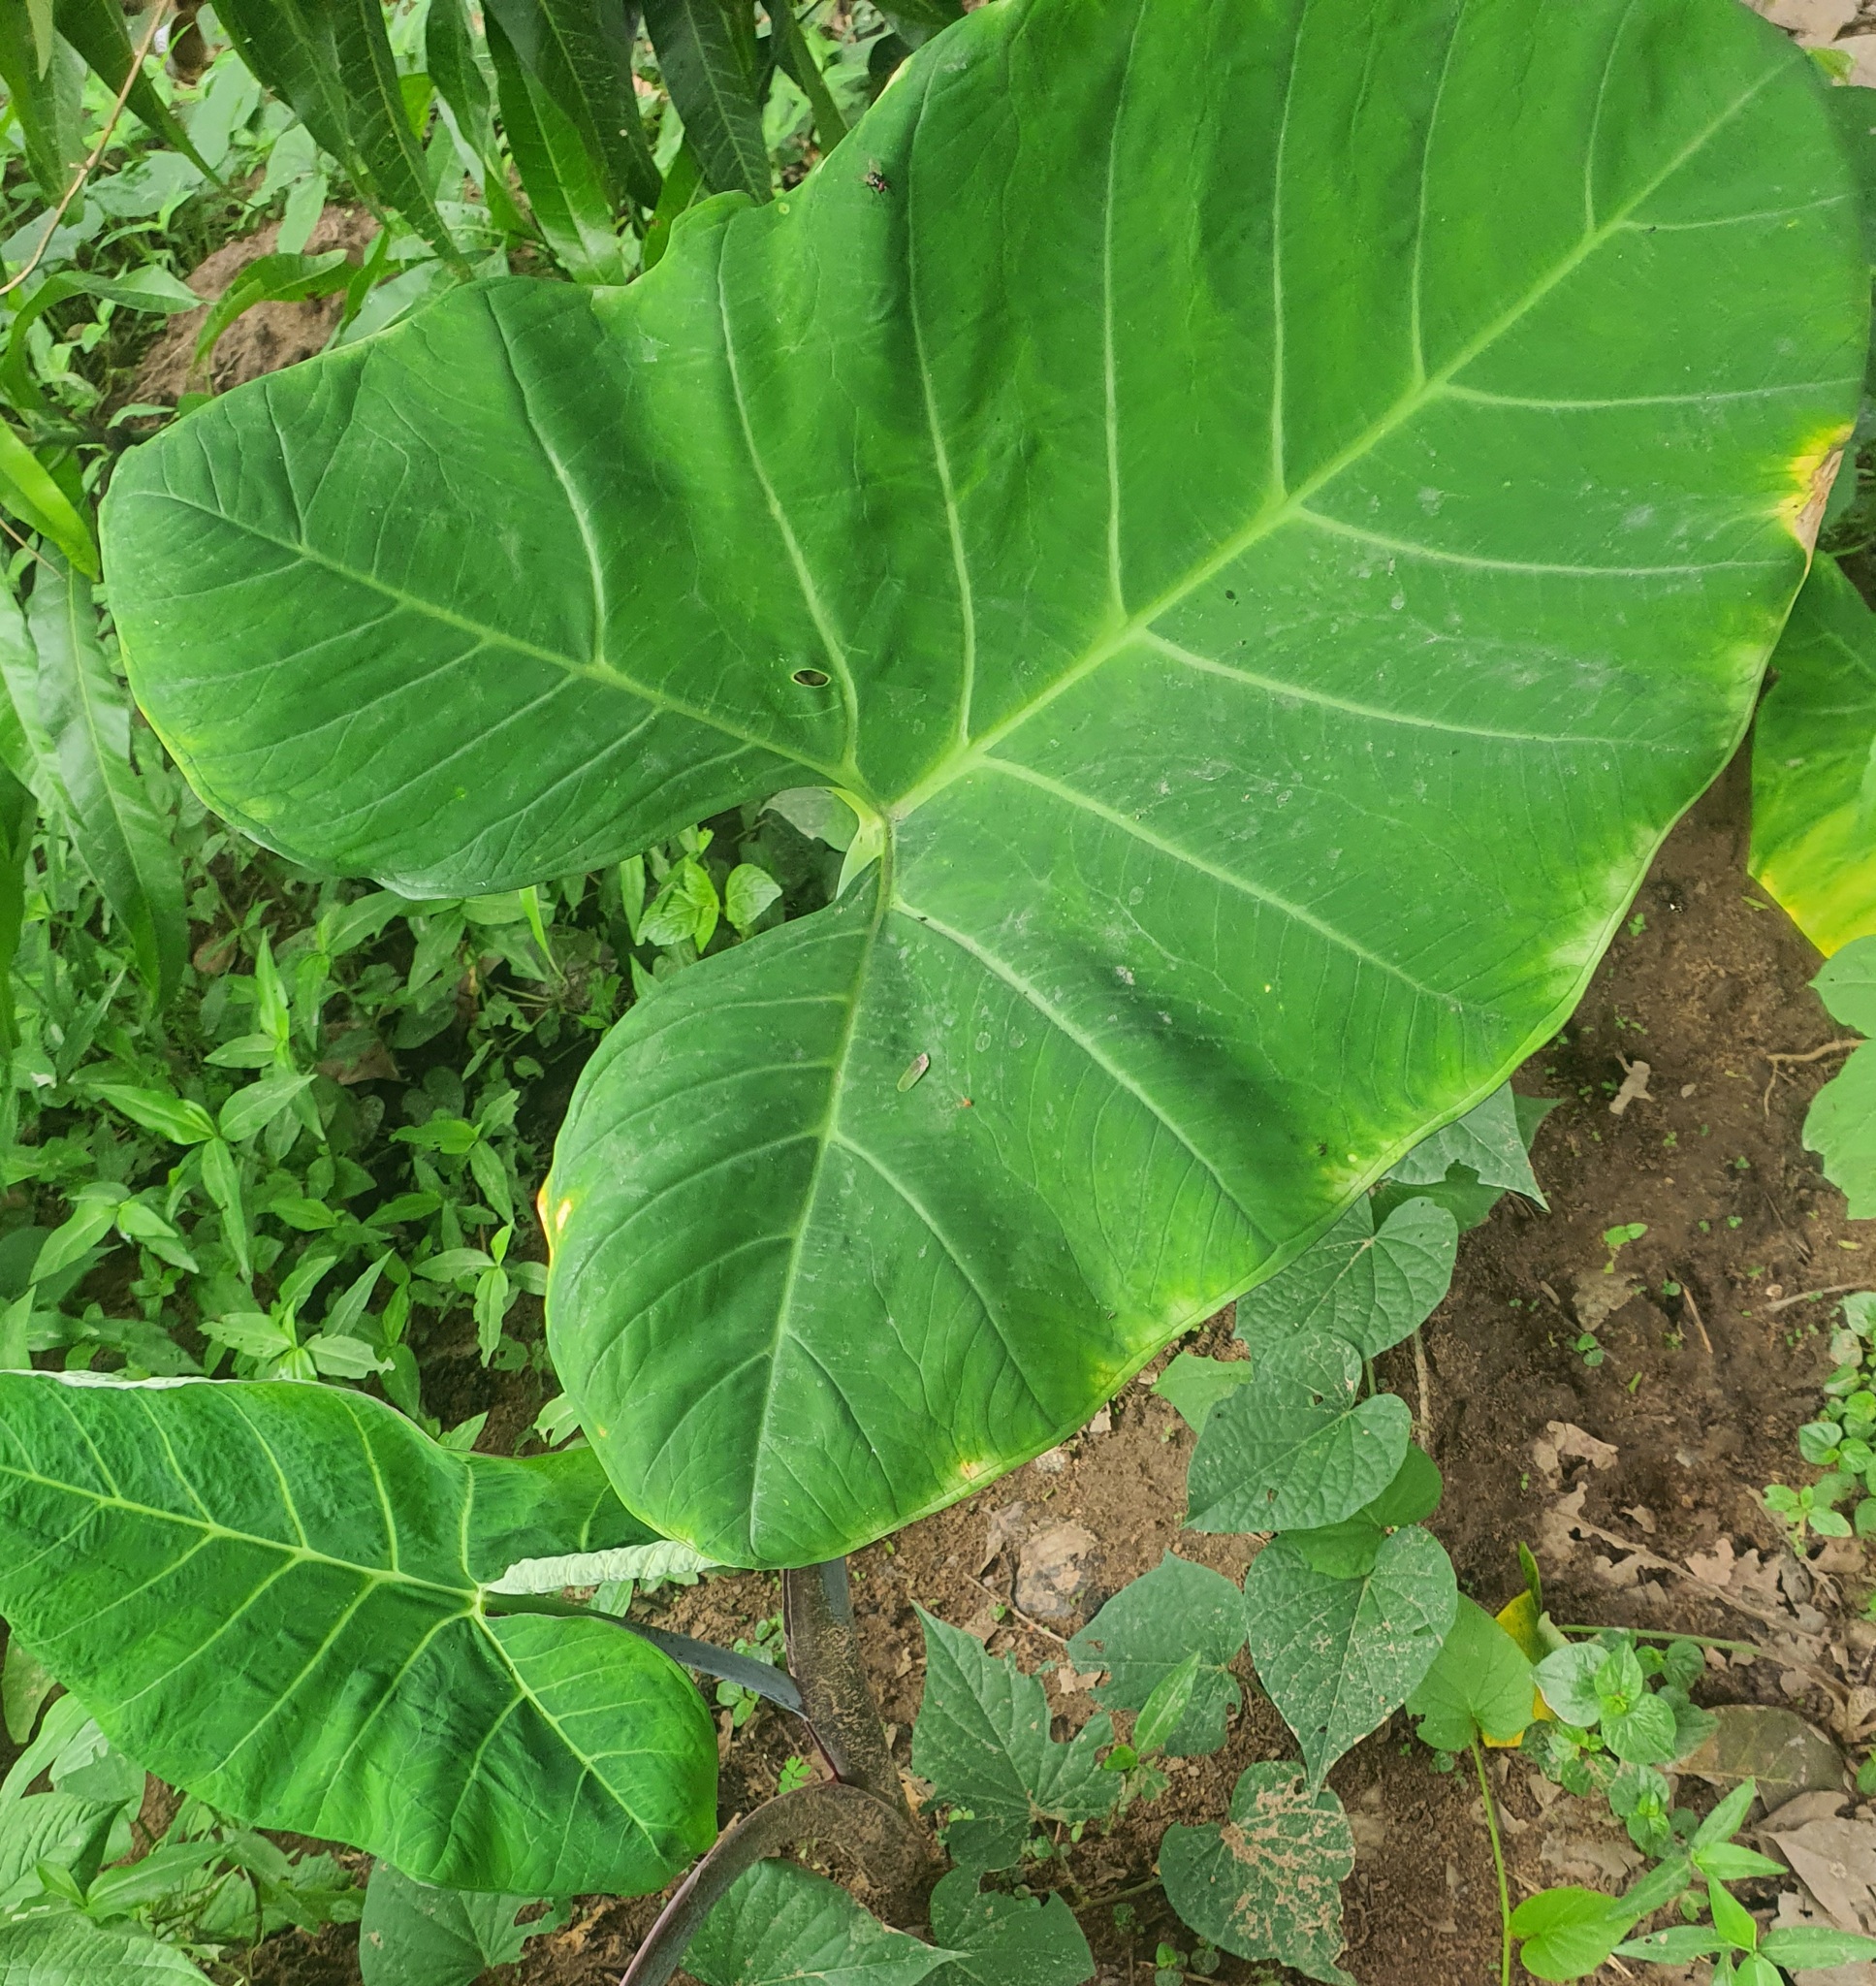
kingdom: Plantae
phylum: Tracheophyta
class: Liliopsida
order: Alismatales
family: Araceae
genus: Colocasia
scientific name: Colocasia esculenta
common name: Taro
